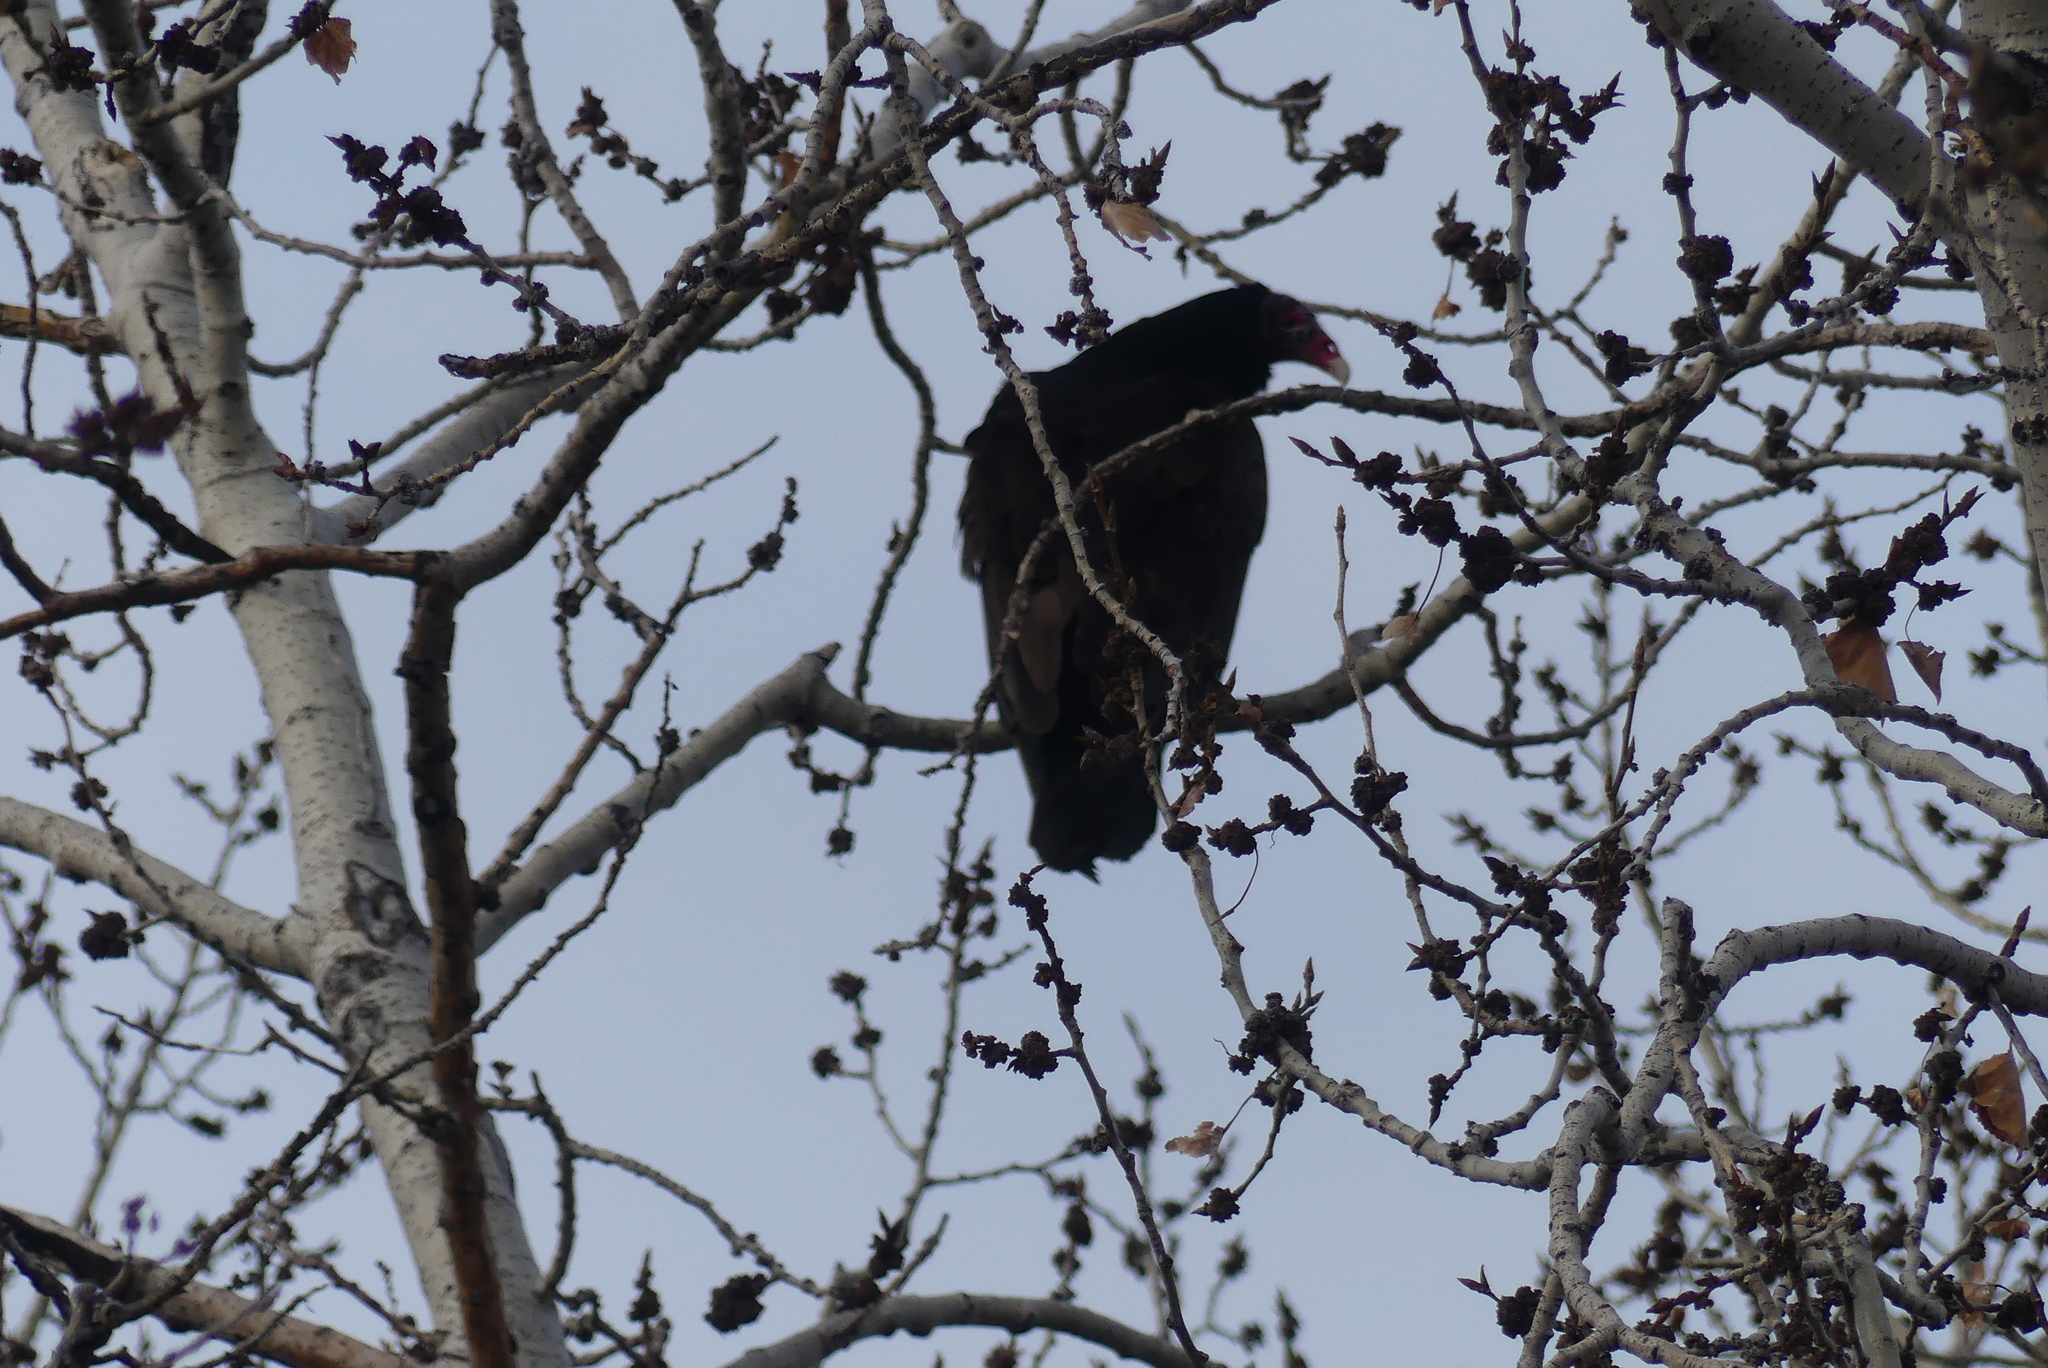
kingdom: Animalia
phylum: Chordata
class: Aves
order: Accipitriformes
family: Cathartidae
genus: Cathartes
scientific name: Cathartes aura
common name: Turkey vulture
